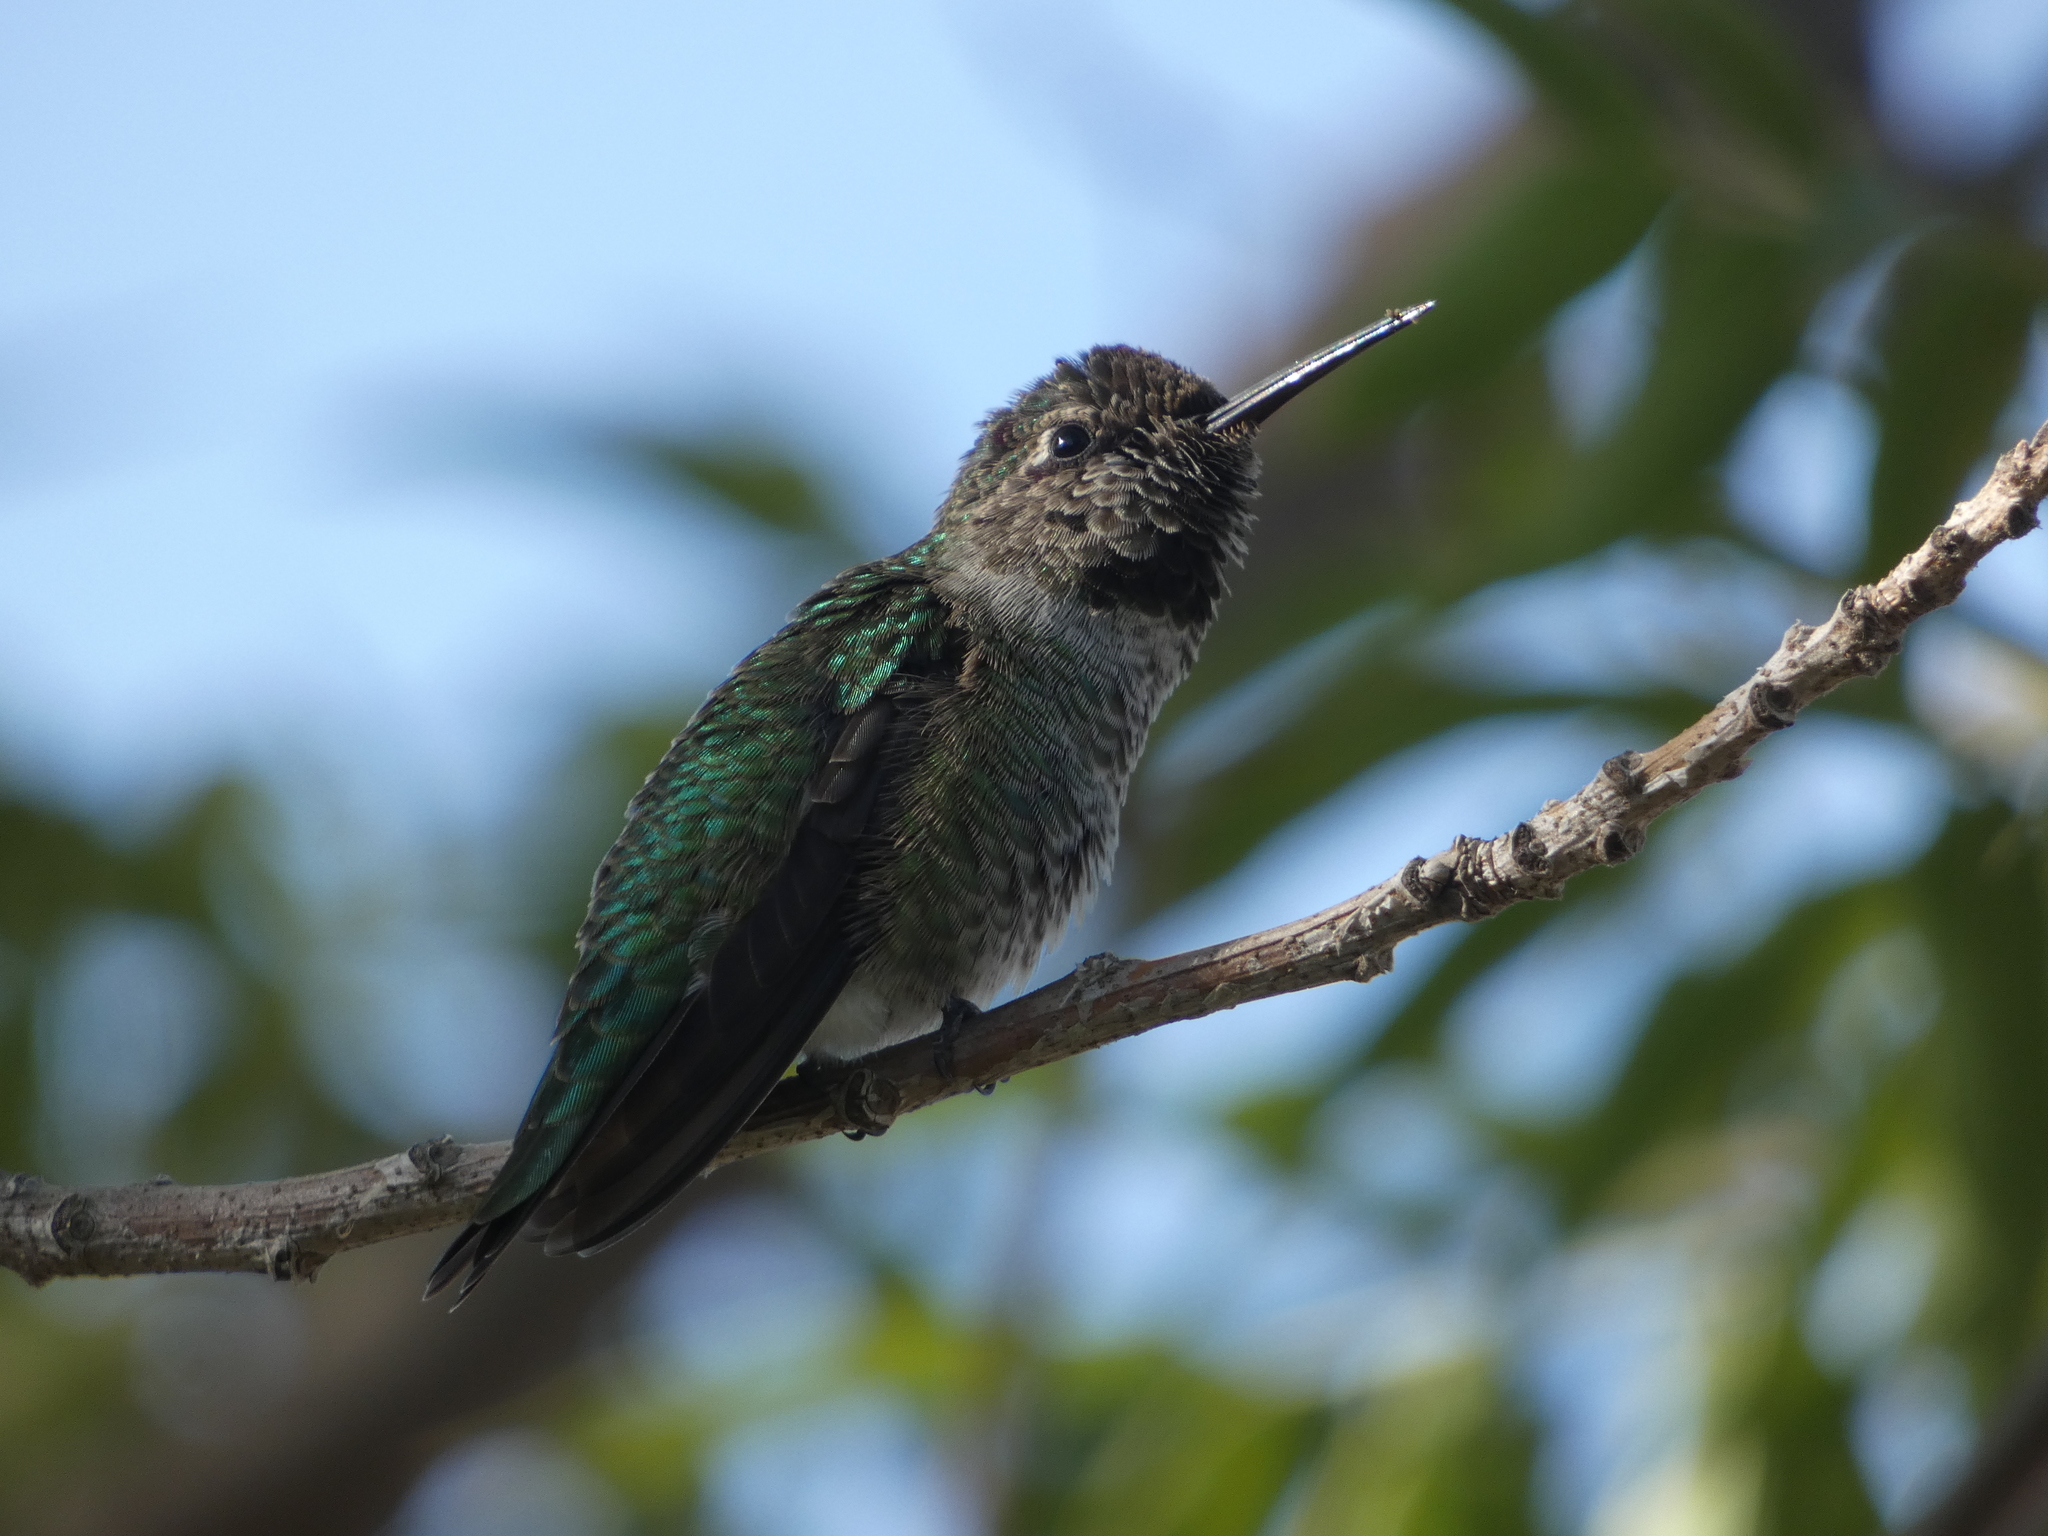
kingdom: Animalia
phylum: Chordata
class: Aves
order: Apodiformes
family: Trochilidae
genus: Calypte
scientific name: Calypte anna
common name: Anna's hummingbird
